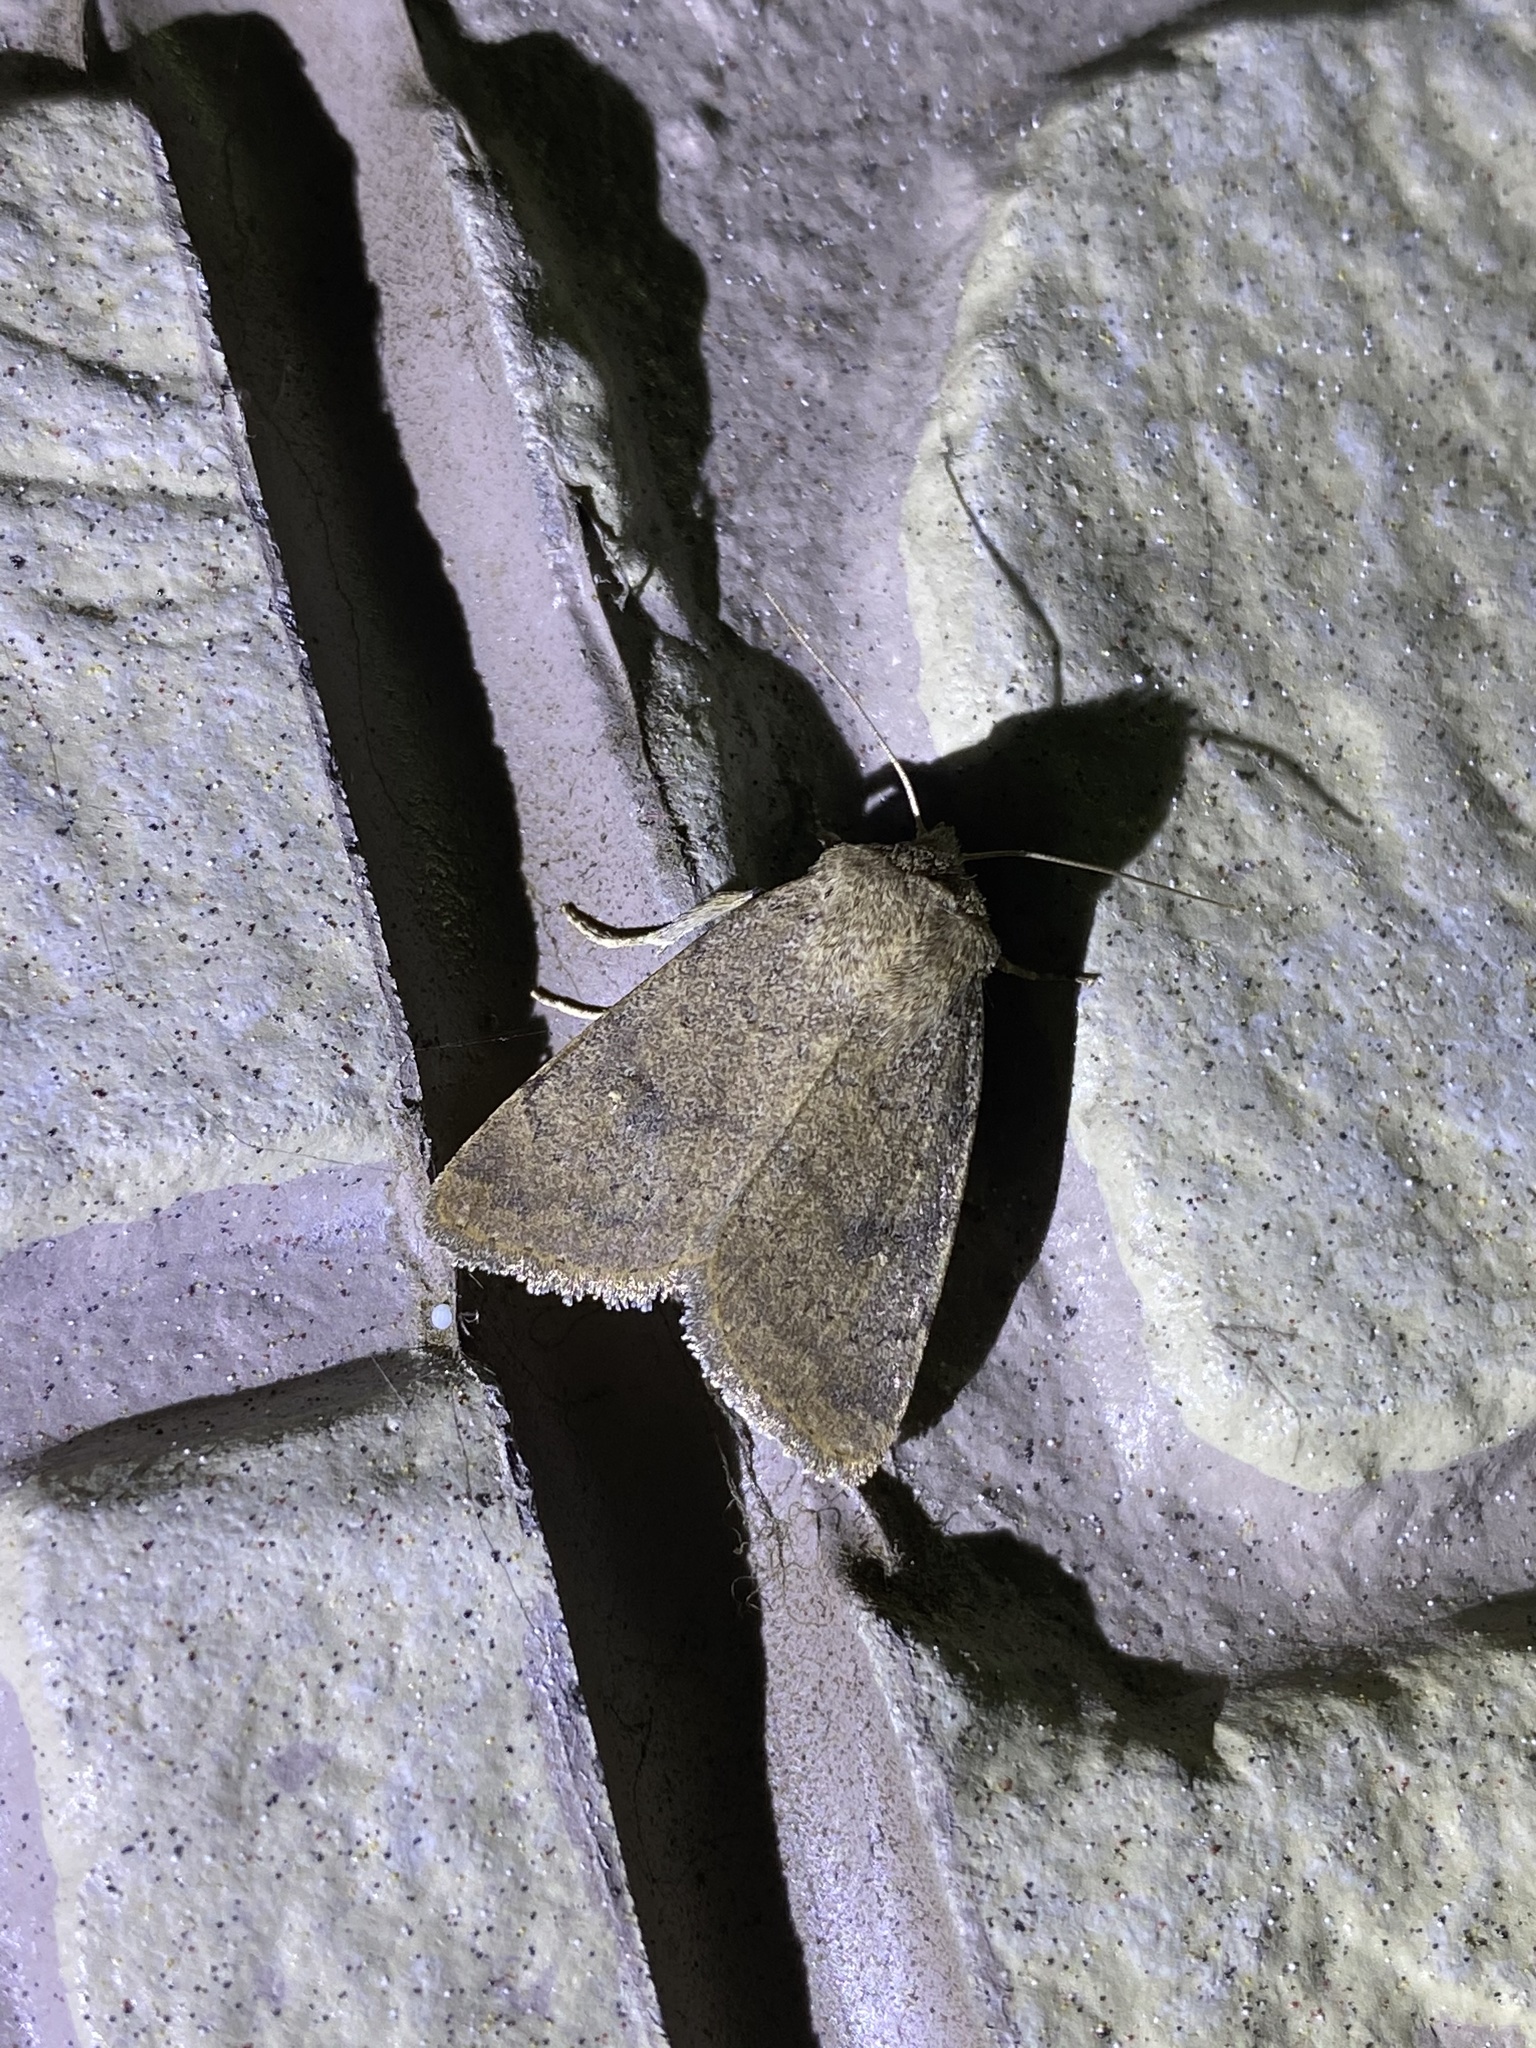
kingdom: Animalia
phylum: Arthropoda
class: Insecta
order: Lepidoptera
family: Noctuidae
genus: Athetis
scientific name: Athetis stellata
